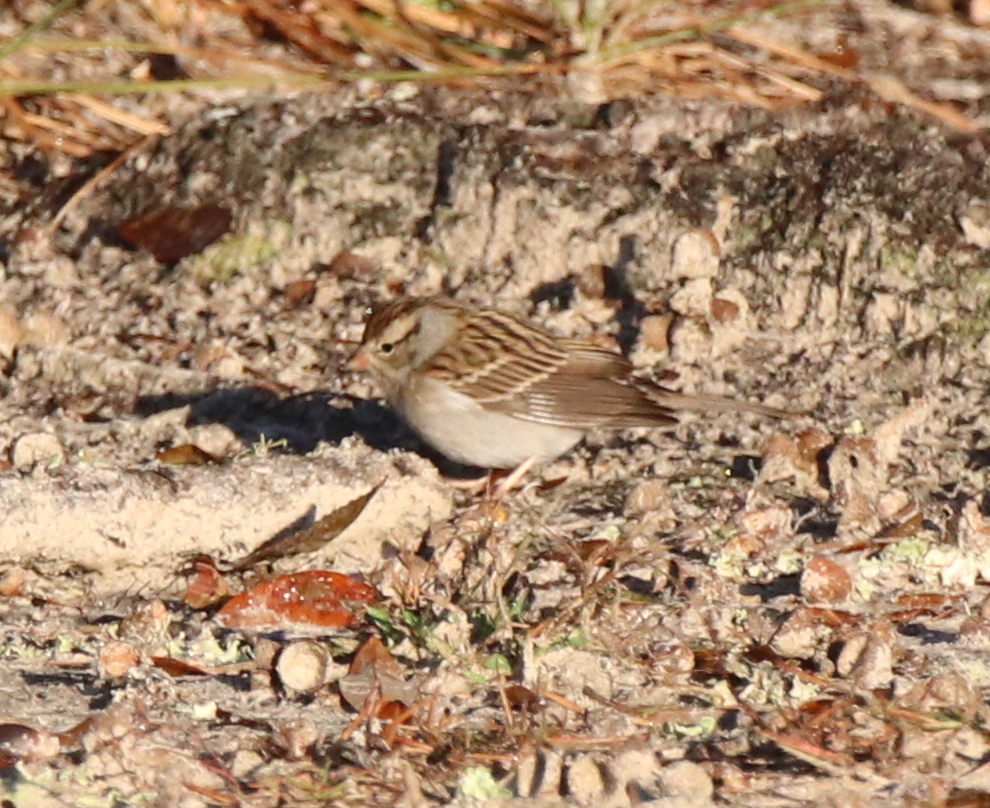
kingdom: Animalia
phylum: Chordata
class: Aves
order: Passeriformes
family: Passerellidae
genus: Spizella
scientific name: Spizella passerina
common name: Chipping sparrow
